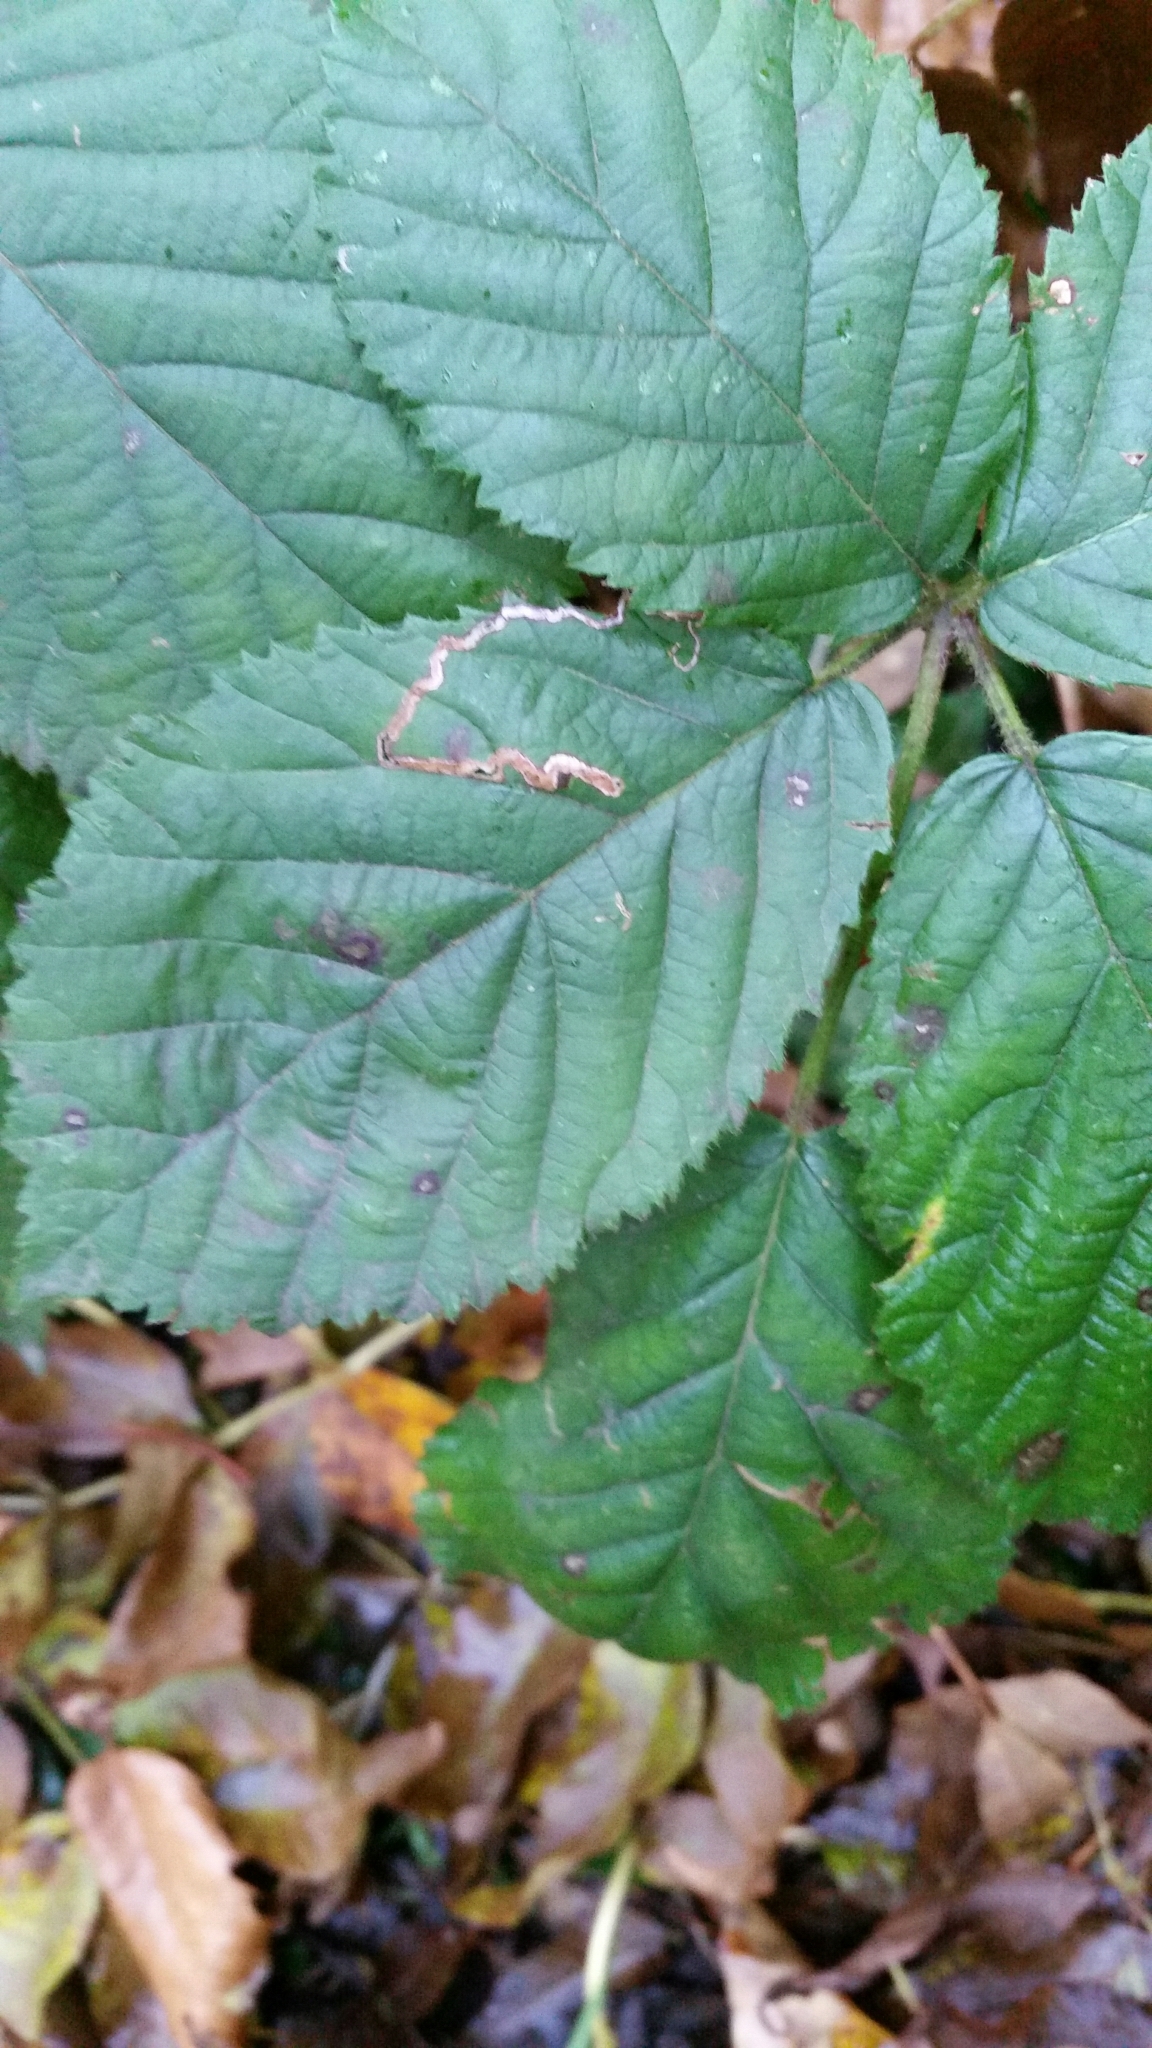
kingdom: Animalia
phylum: Arthropoda
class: Insecta
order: Lepidoptera
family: Nepticulidae
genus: Stigmella
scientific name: Stigmella aurella
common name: Golden pigmy
